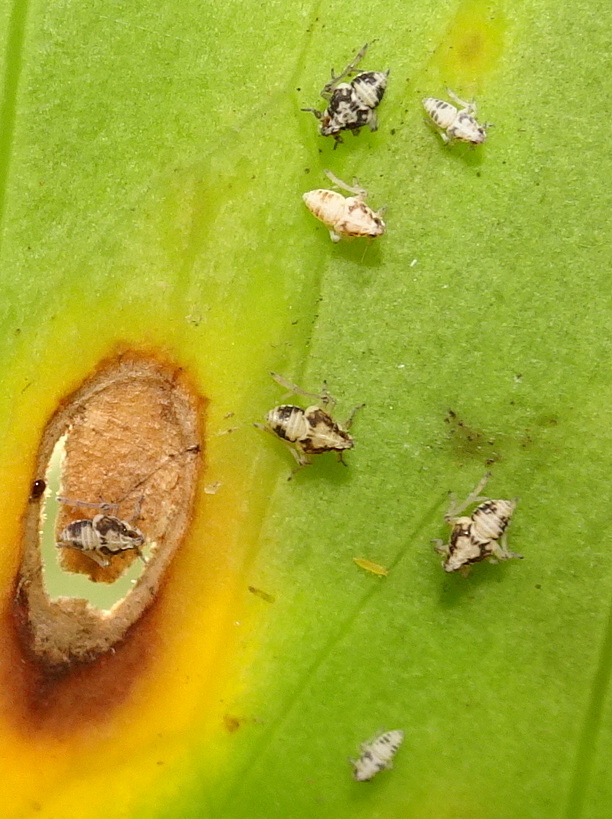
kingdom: Animalia
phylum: Arthropoda
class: Insecta
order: Hemiptera
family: Delphacidae
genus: Megamelus
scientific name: Megamelus davisi
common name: Planthopper
